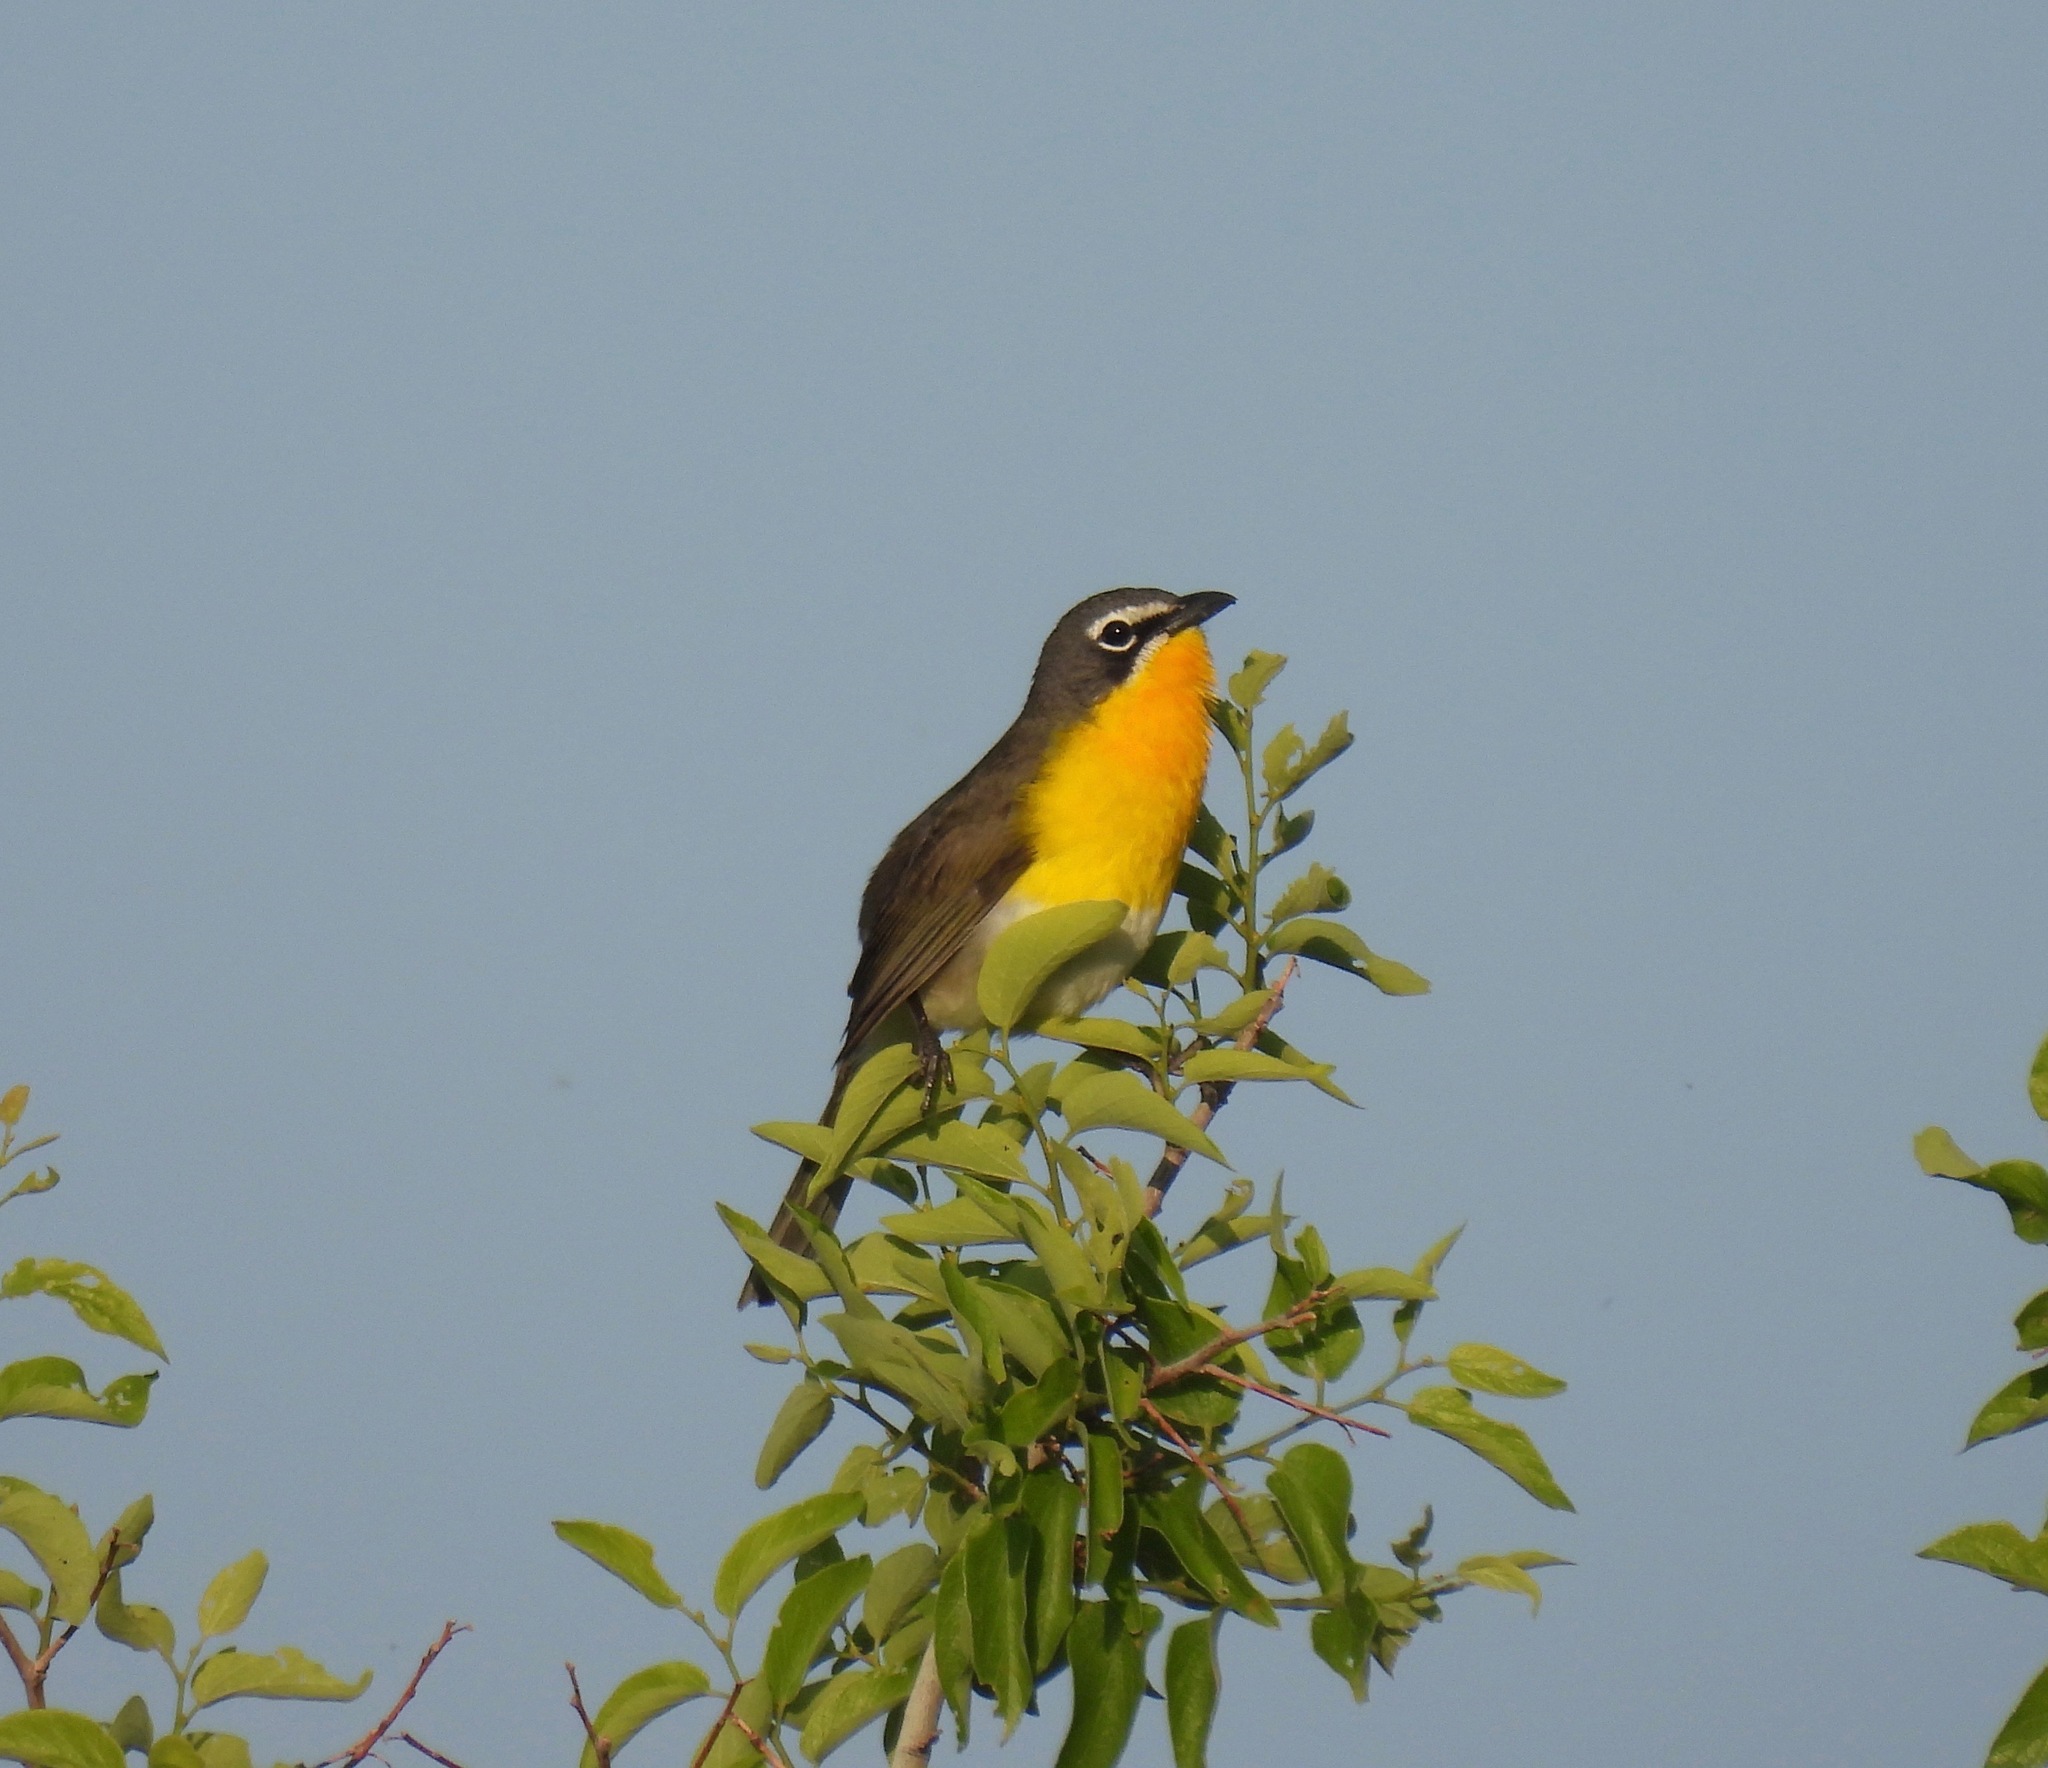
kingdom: Animalia
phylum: Chordata
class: Aves
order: Passeriformes
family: Parulidae
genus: Icteria
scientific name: Icteria virens
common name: Yellow-breasted chat
